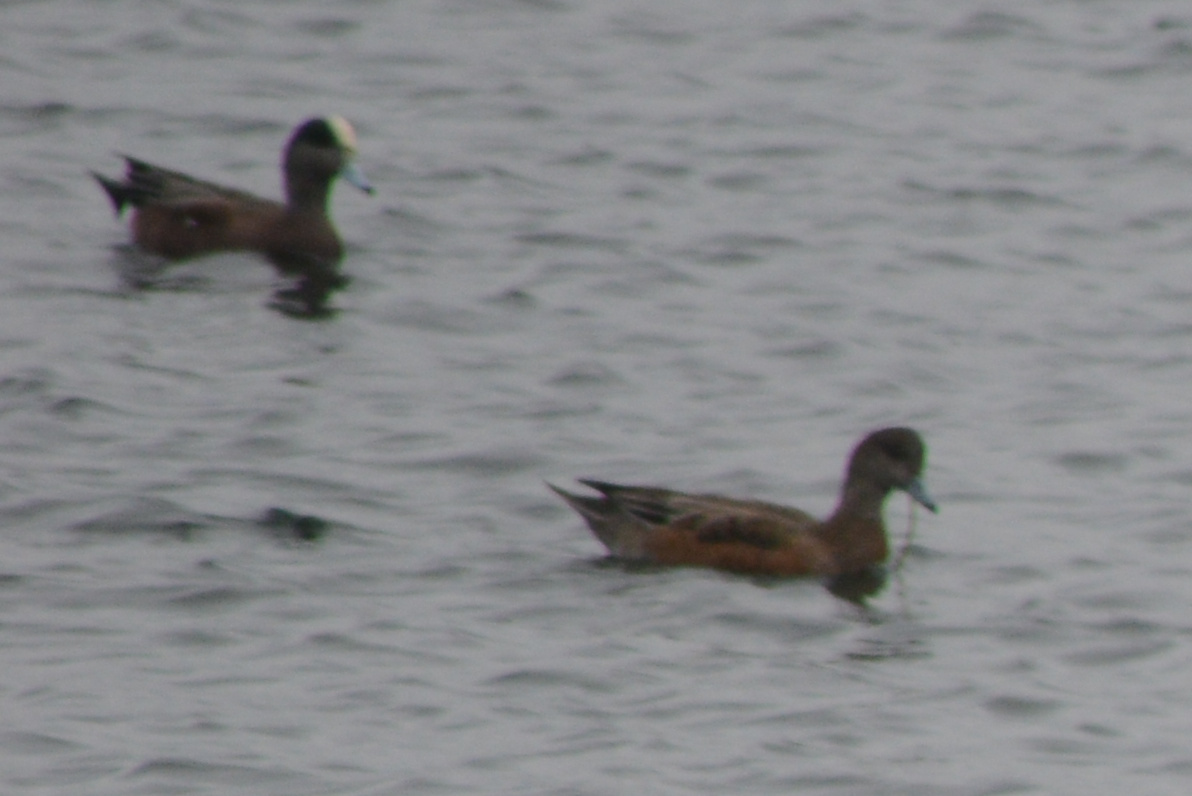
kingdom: Animalia
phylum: Chordata
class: Aves
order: Anseriformes
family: Anatidae
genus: Mareca
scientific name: Mareca americana
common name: American wigeon
